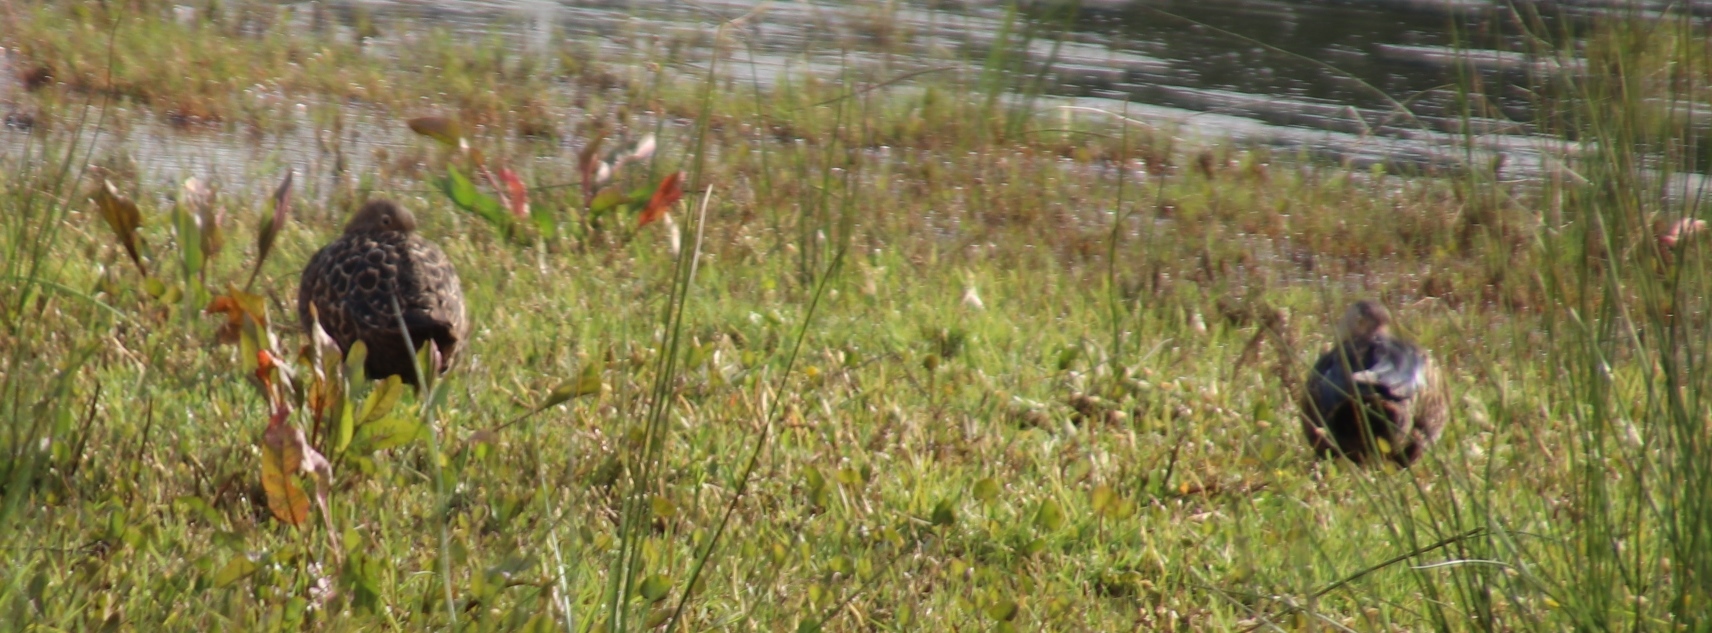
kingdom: Animalia
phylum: Chordata
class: Aves
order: Anseriformes
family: Anatidae
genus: Spatula
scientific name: Spatula smithii
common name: Cape shoveler
